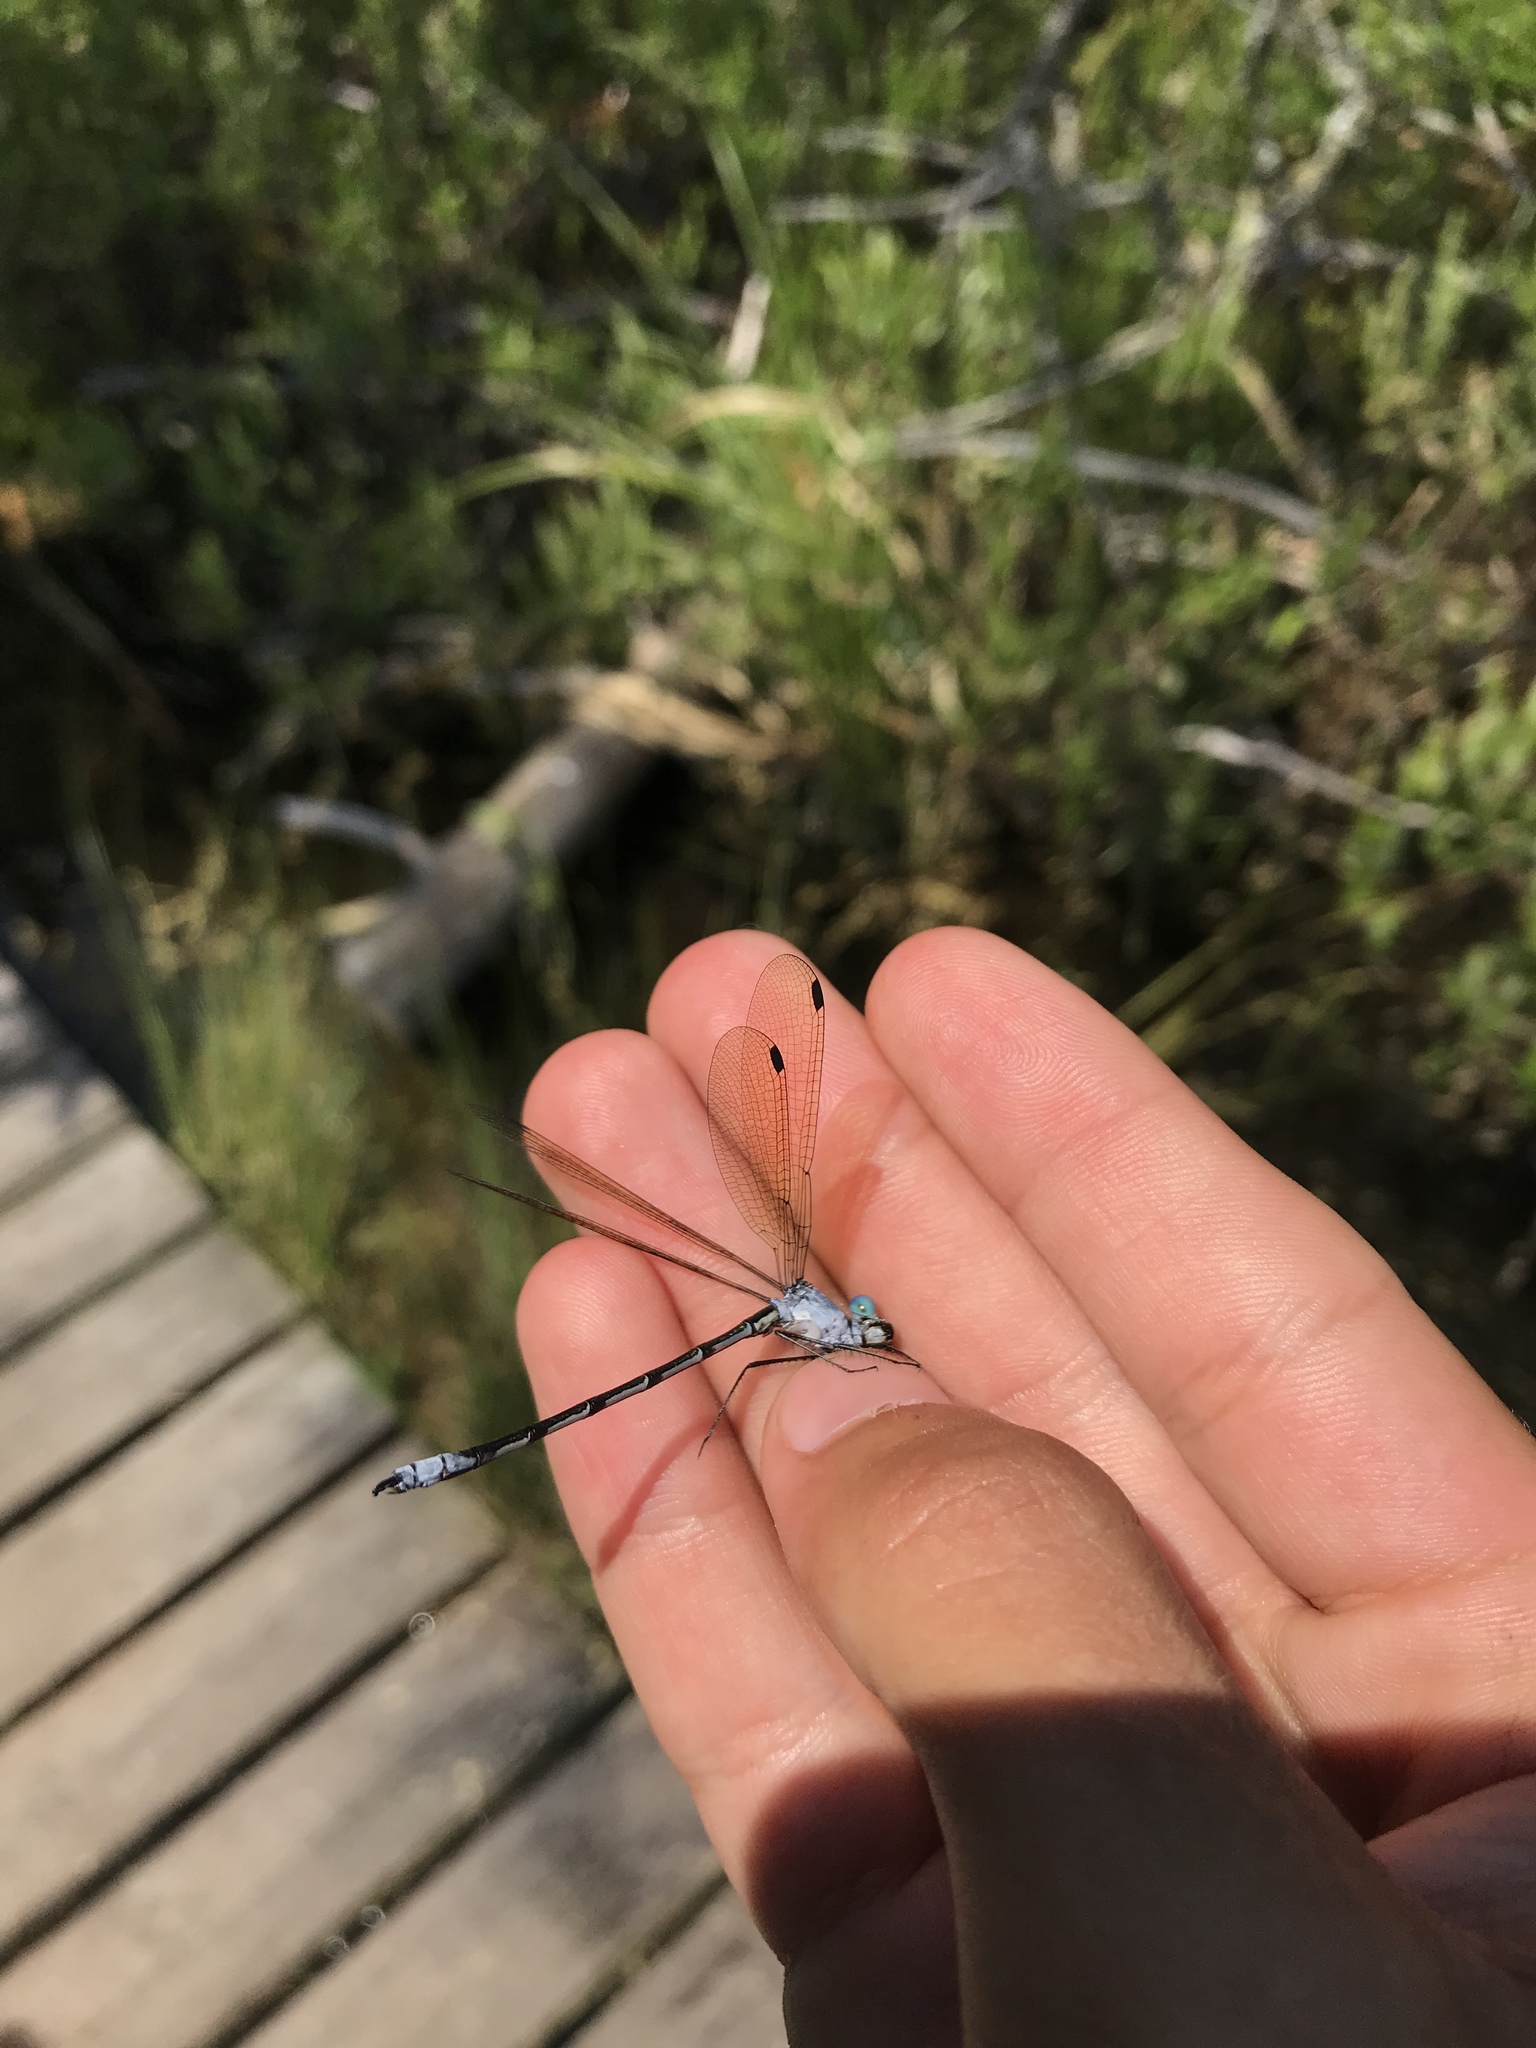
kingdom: Animalia
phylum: Arthropoda
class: Insecta
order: Odonata
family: Lestidae
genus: Lestes
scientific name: Lestes eurinus
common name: Amber-winged spreadwing
